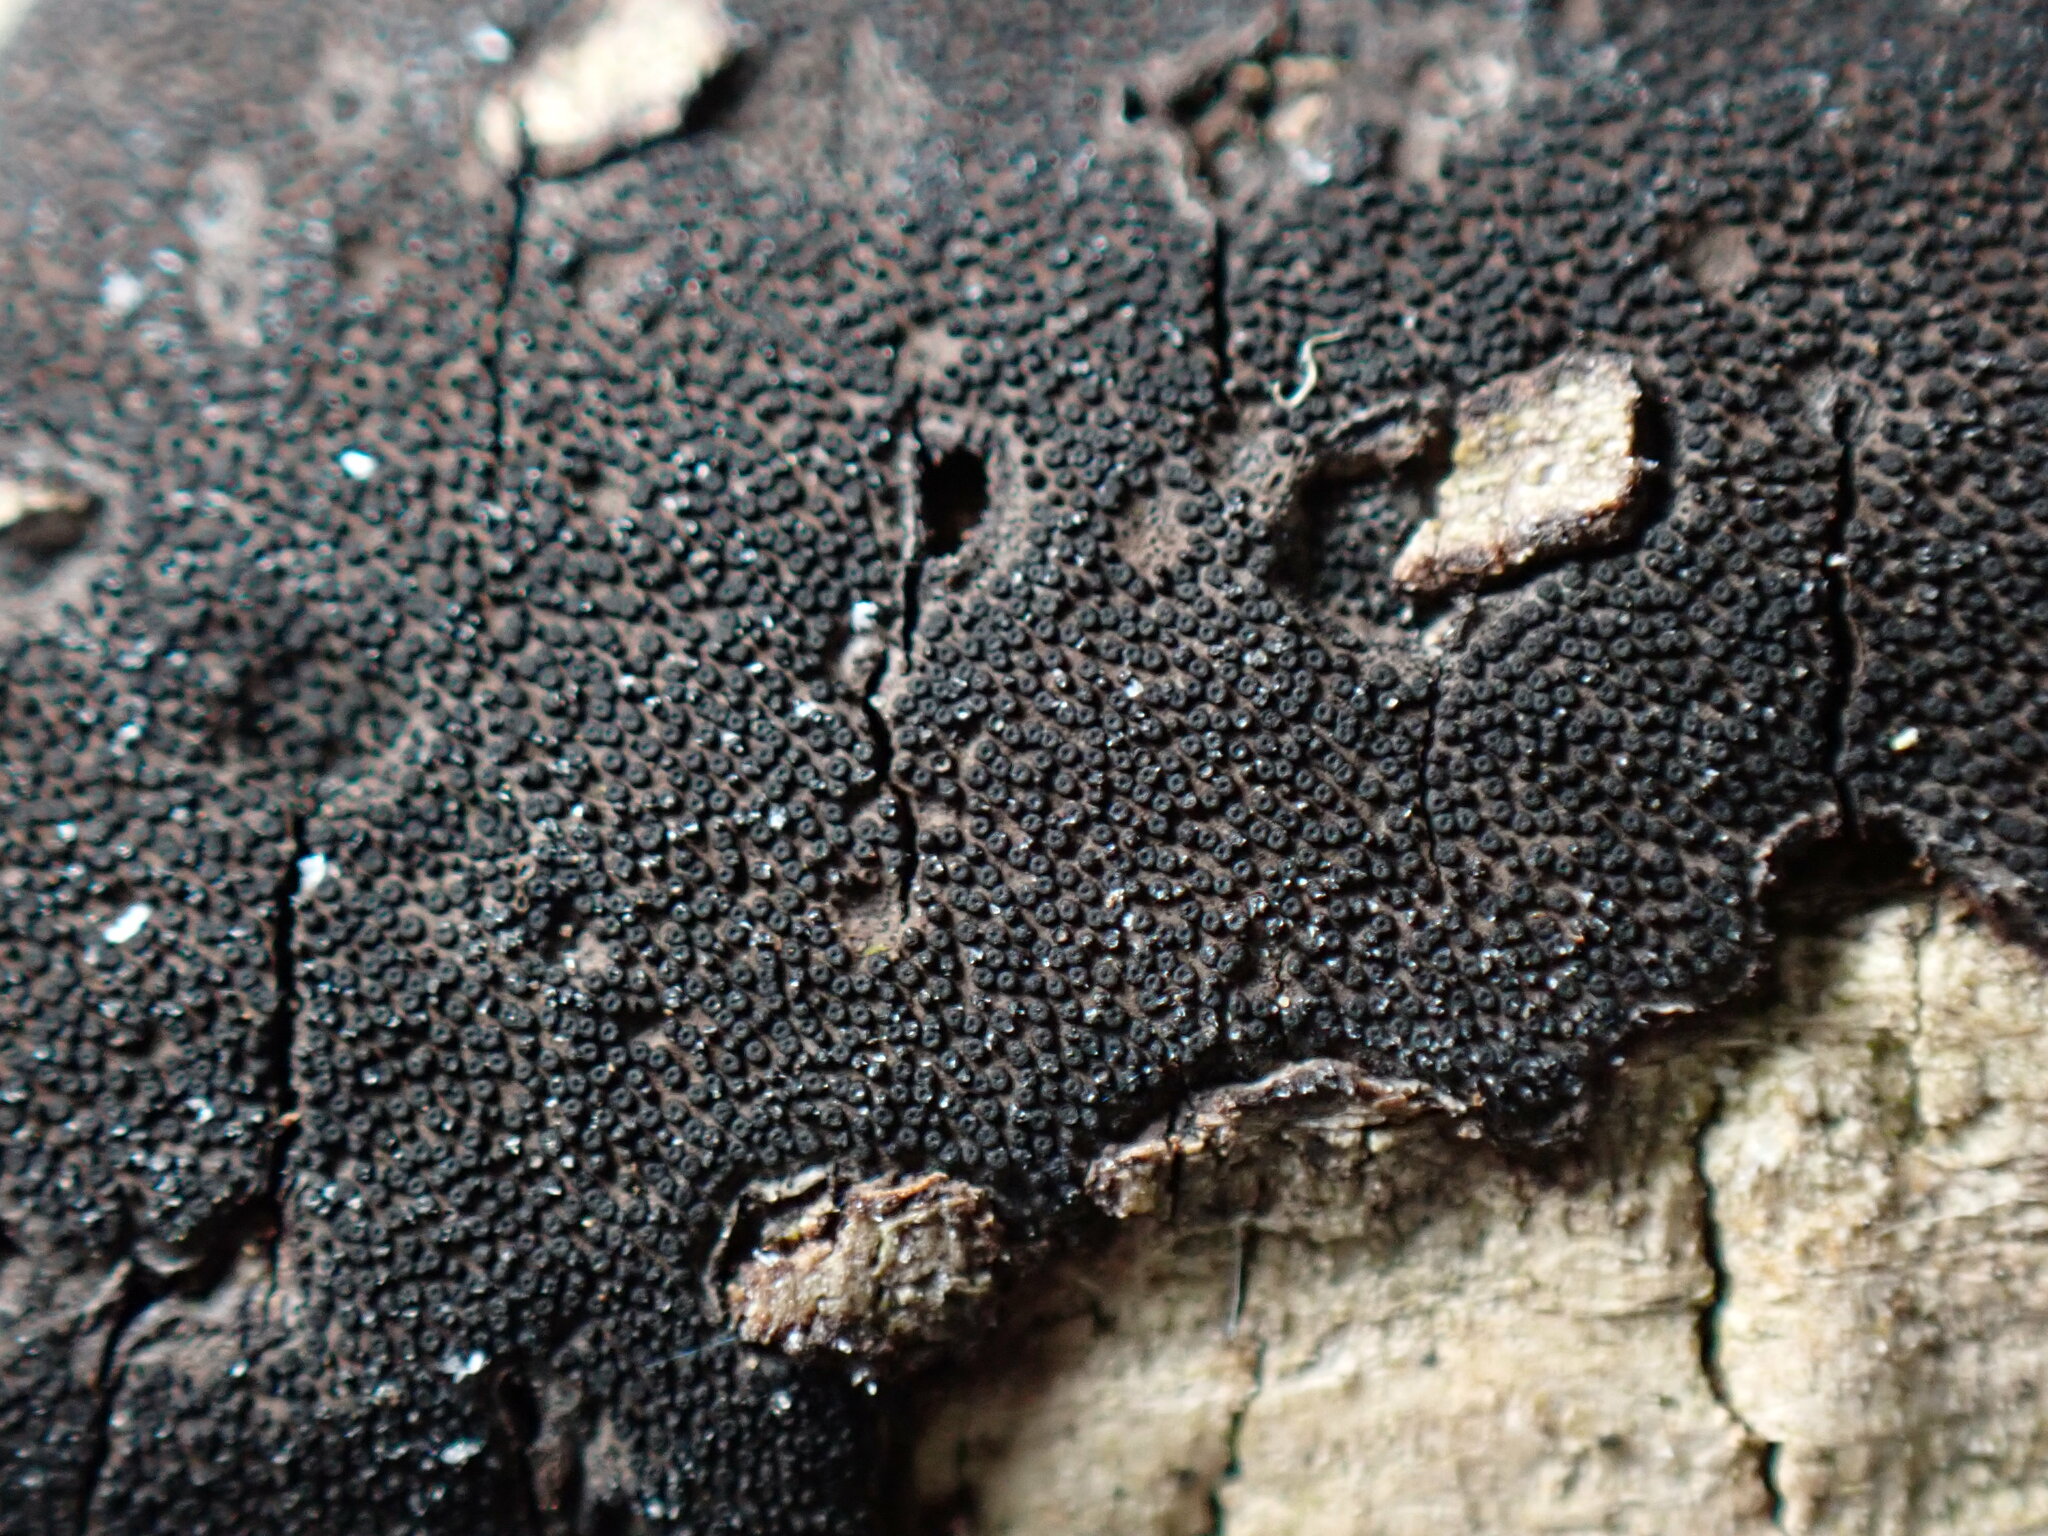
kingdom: Fungi
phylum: Ascomycota
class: Sordariomycetes
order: Xylariales
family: Graphostromataceae
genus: Graphostroma
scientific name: Graphostroma platystomum
